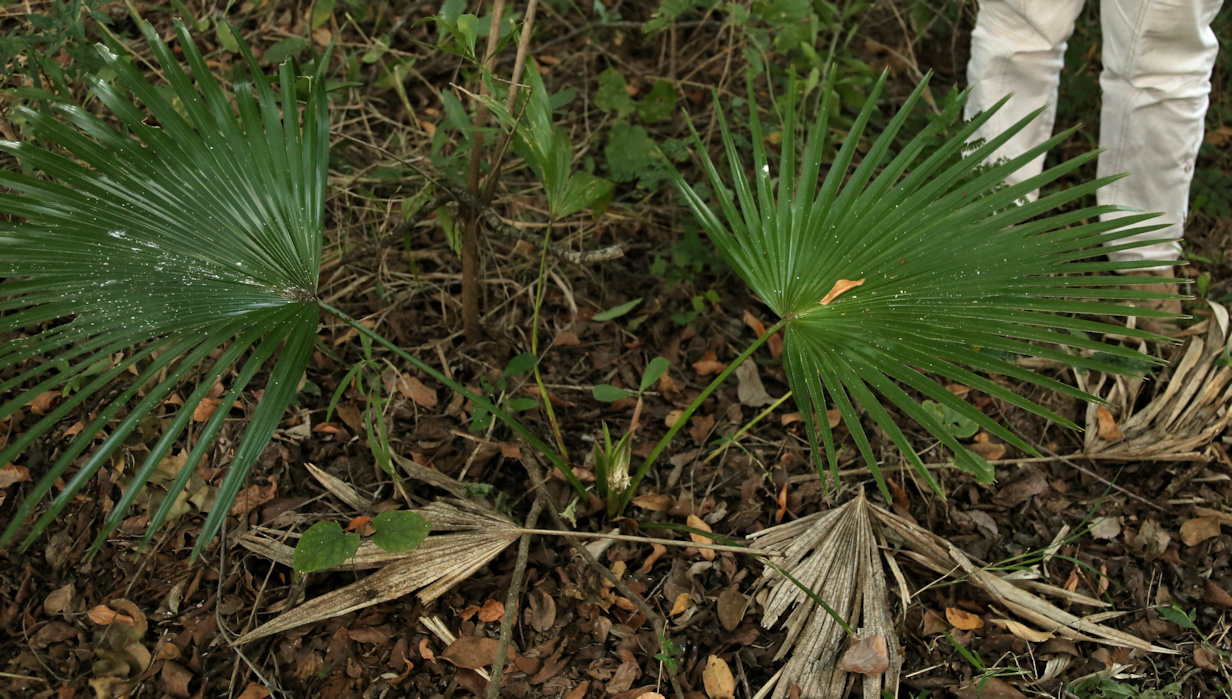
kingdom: Plantae
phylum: Tracheophyta
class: Liliopsida
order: Arecales
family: Arecaceae
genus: Livistona
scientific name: Livistona chinensis
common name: Fountain palm
